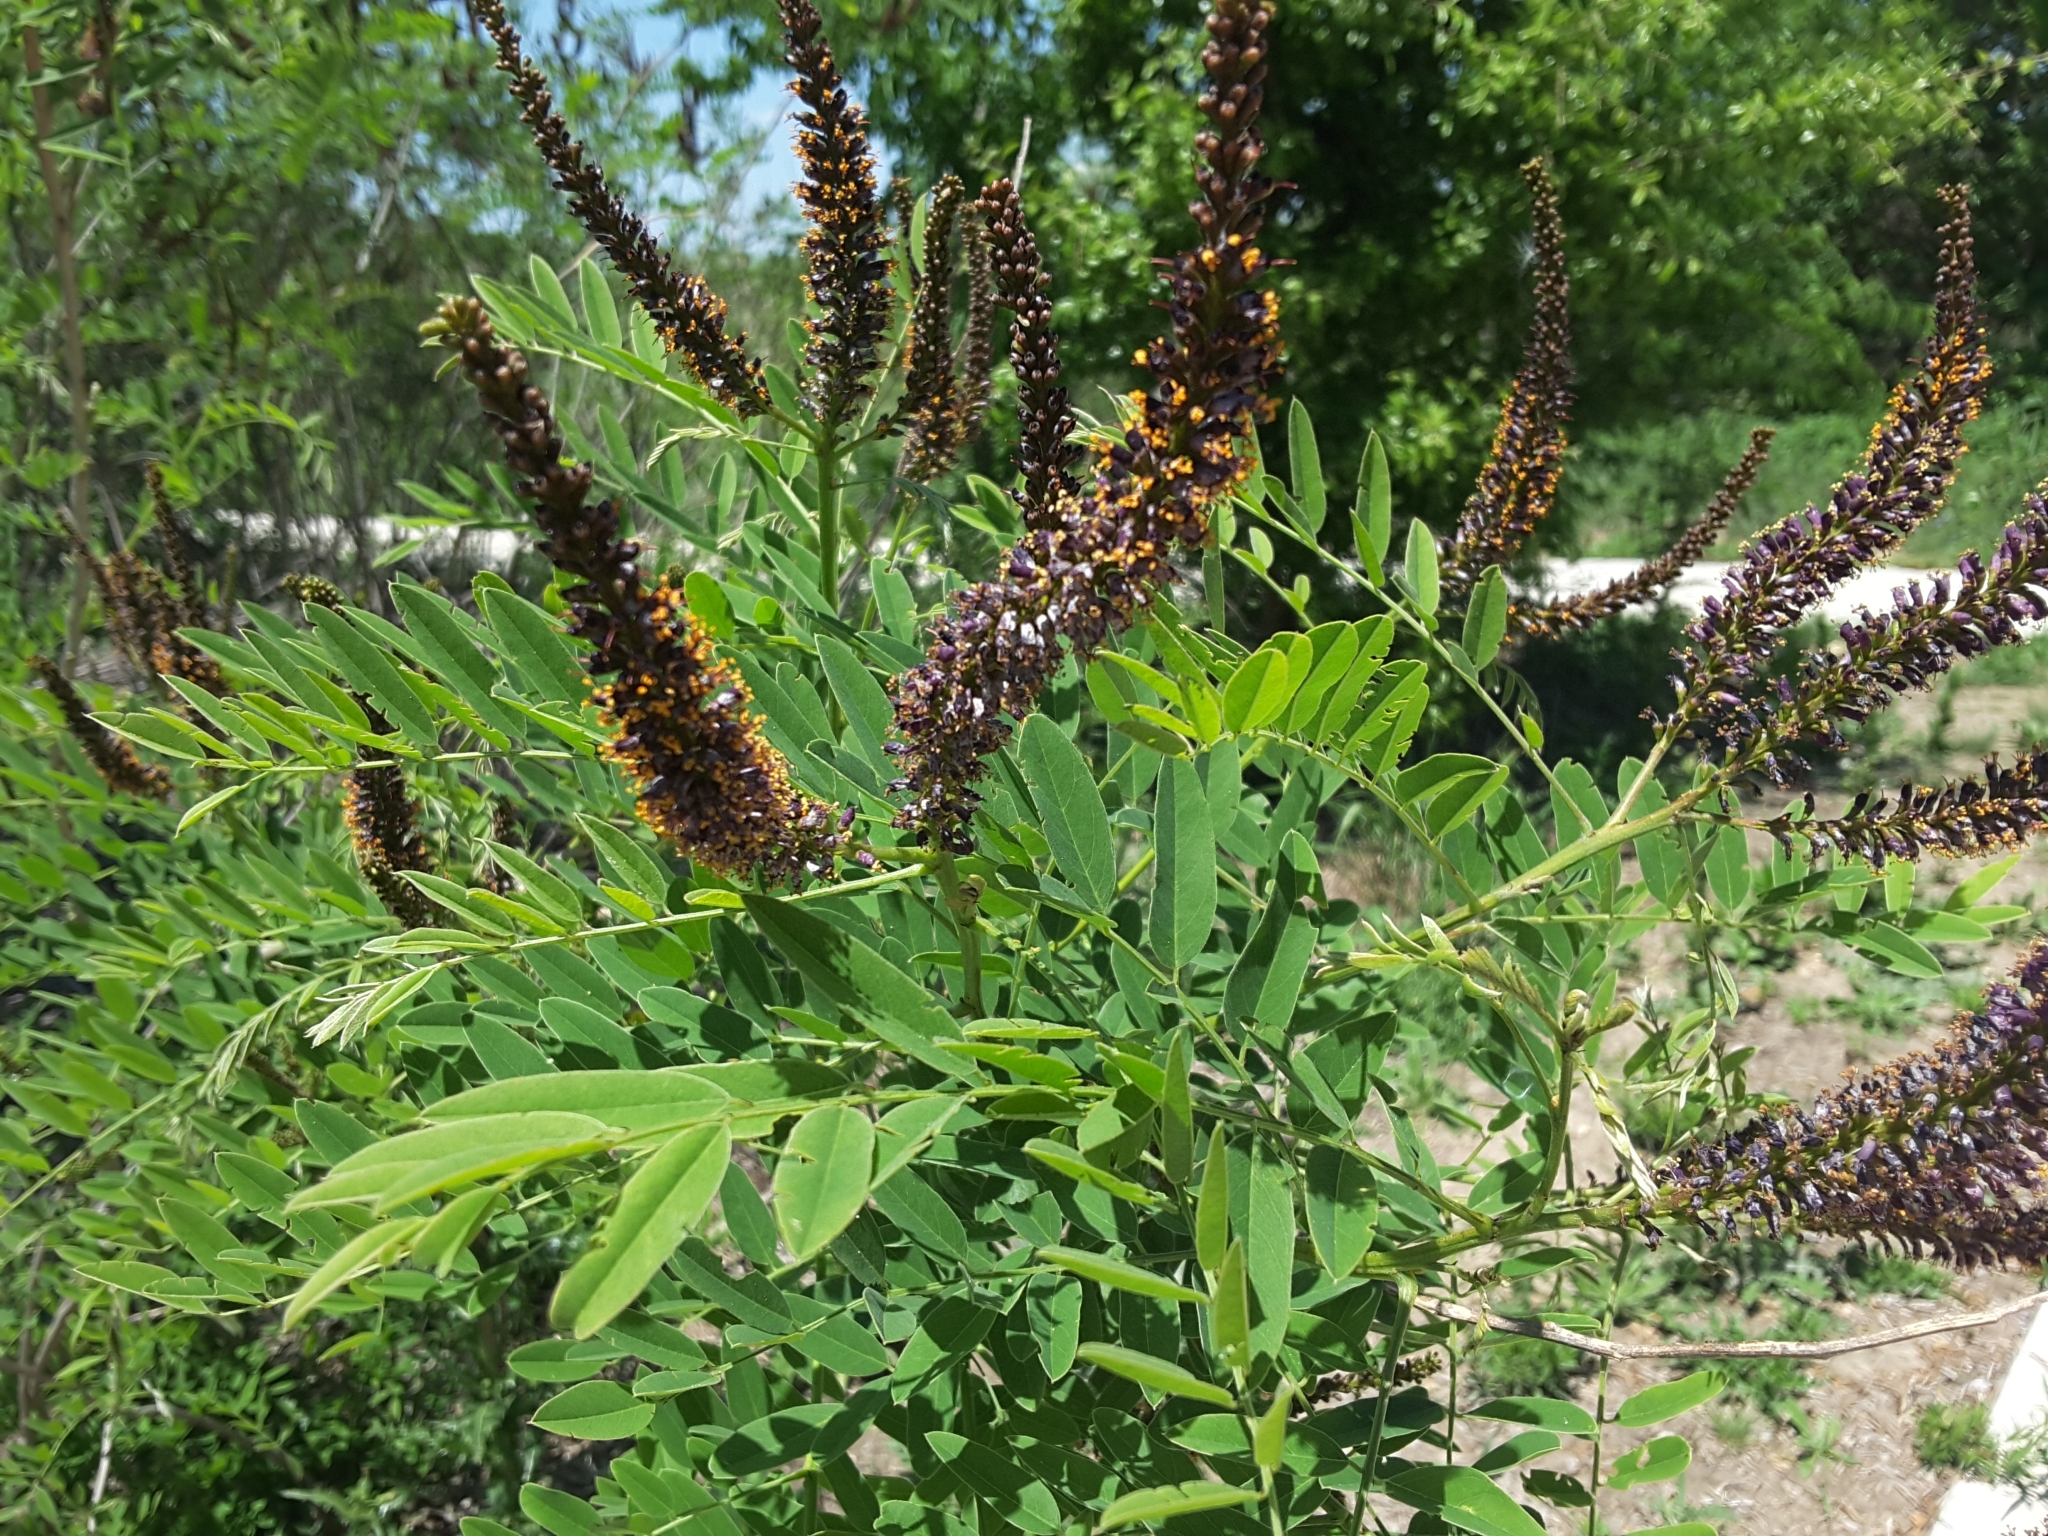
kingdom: Plantae
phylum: Tracheophyta
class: Magnoliopsida
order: Fabales
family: Fabaceae
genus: Amorpha
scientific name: Amorpha fruticosa
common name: False indigo
